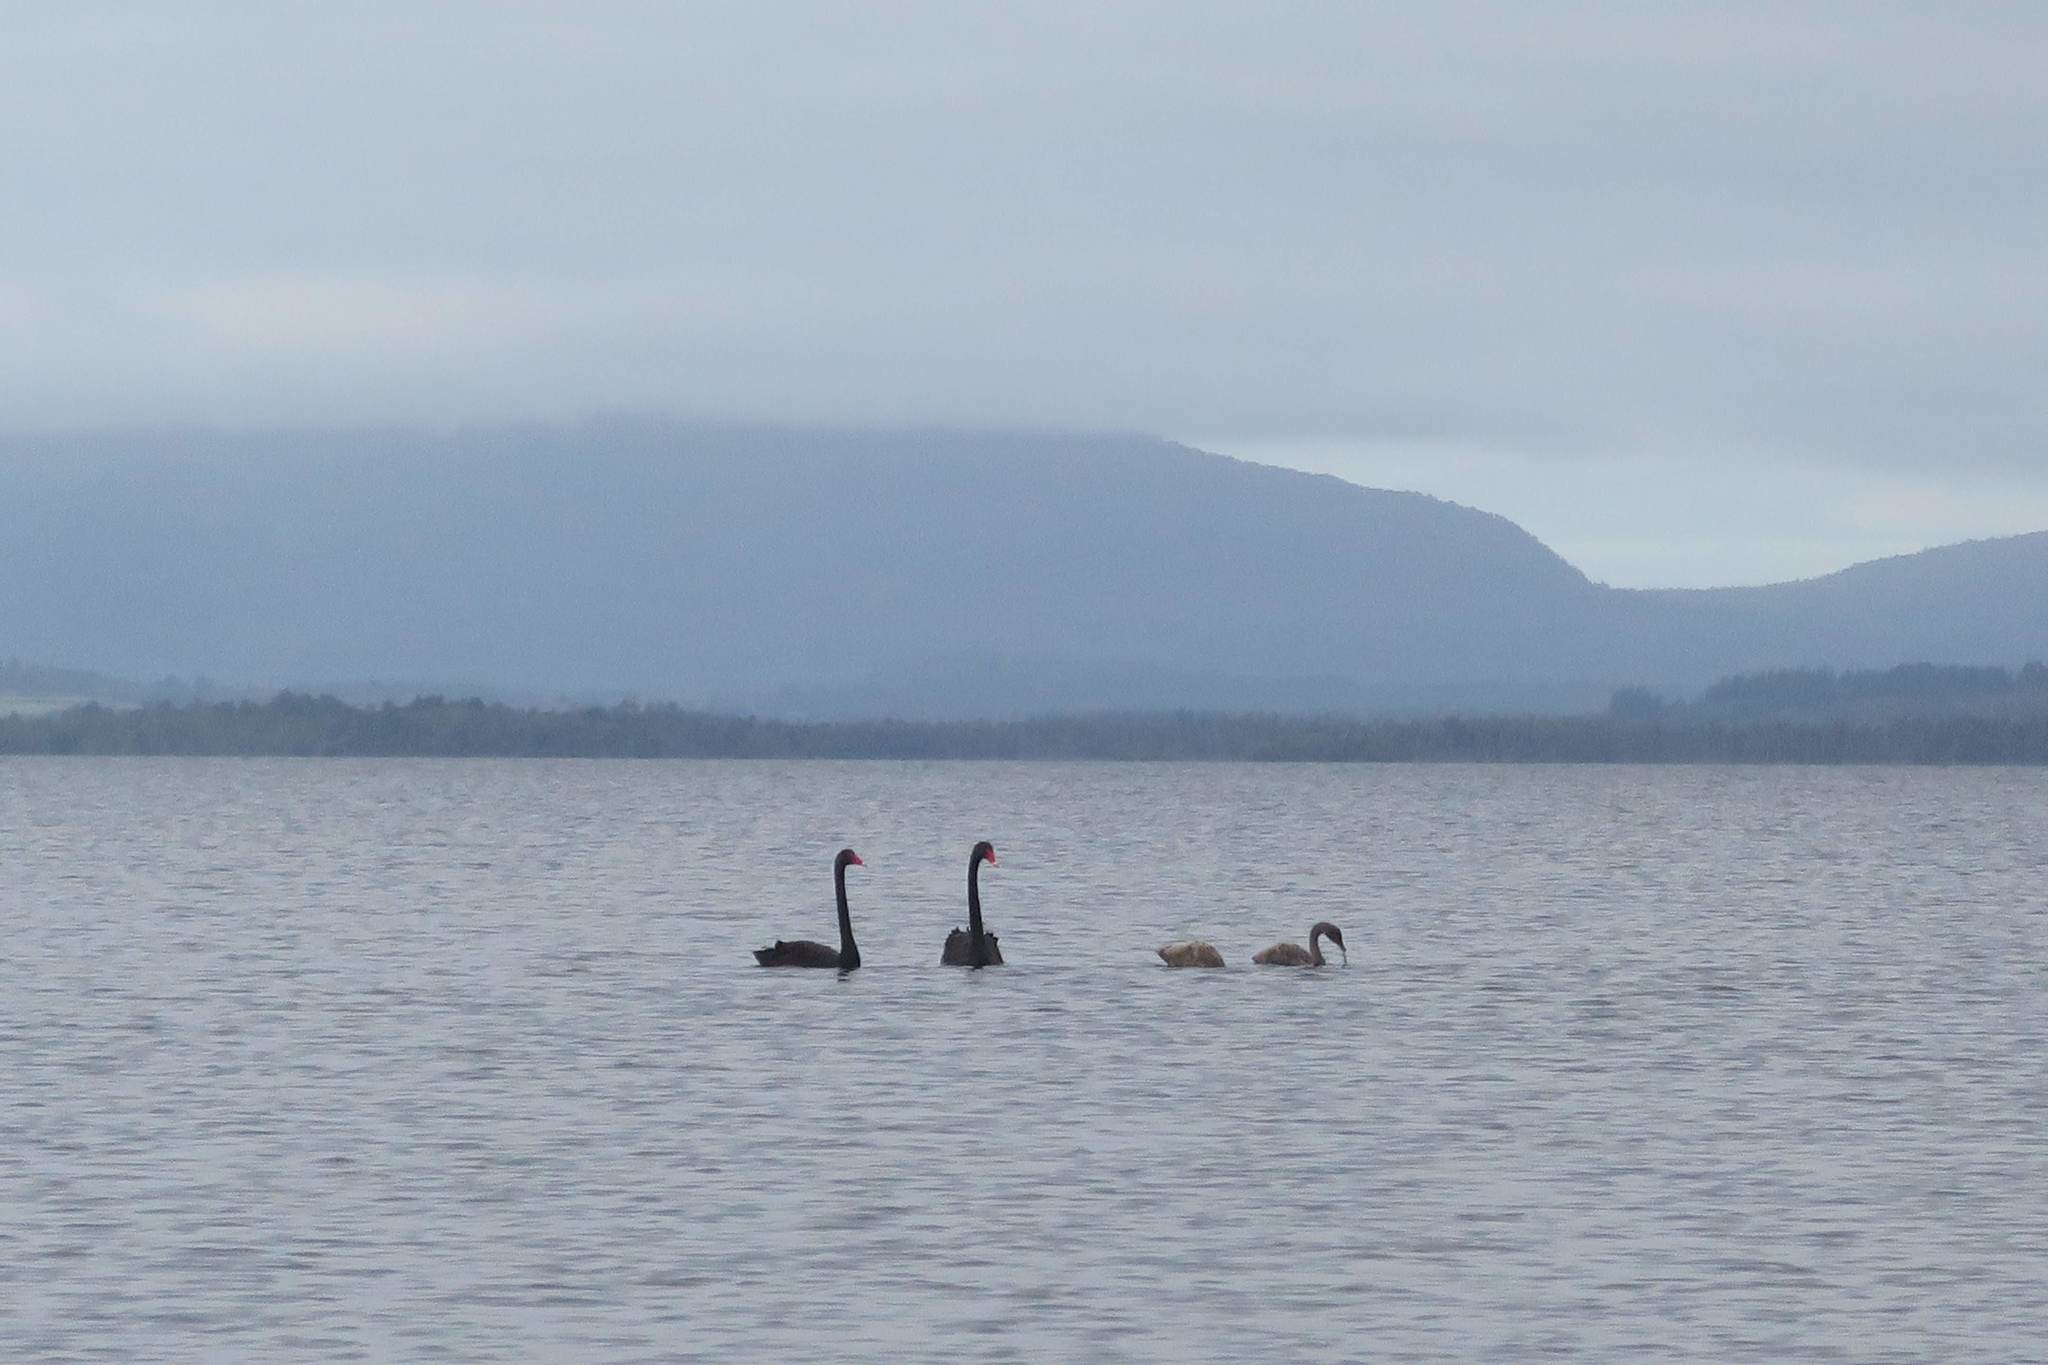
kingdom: Animalia
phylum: Chordata
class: Aves
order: Anseriformes
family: Anatidae
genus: Cygnus
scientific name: Cygnus atratus
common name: Black swan
